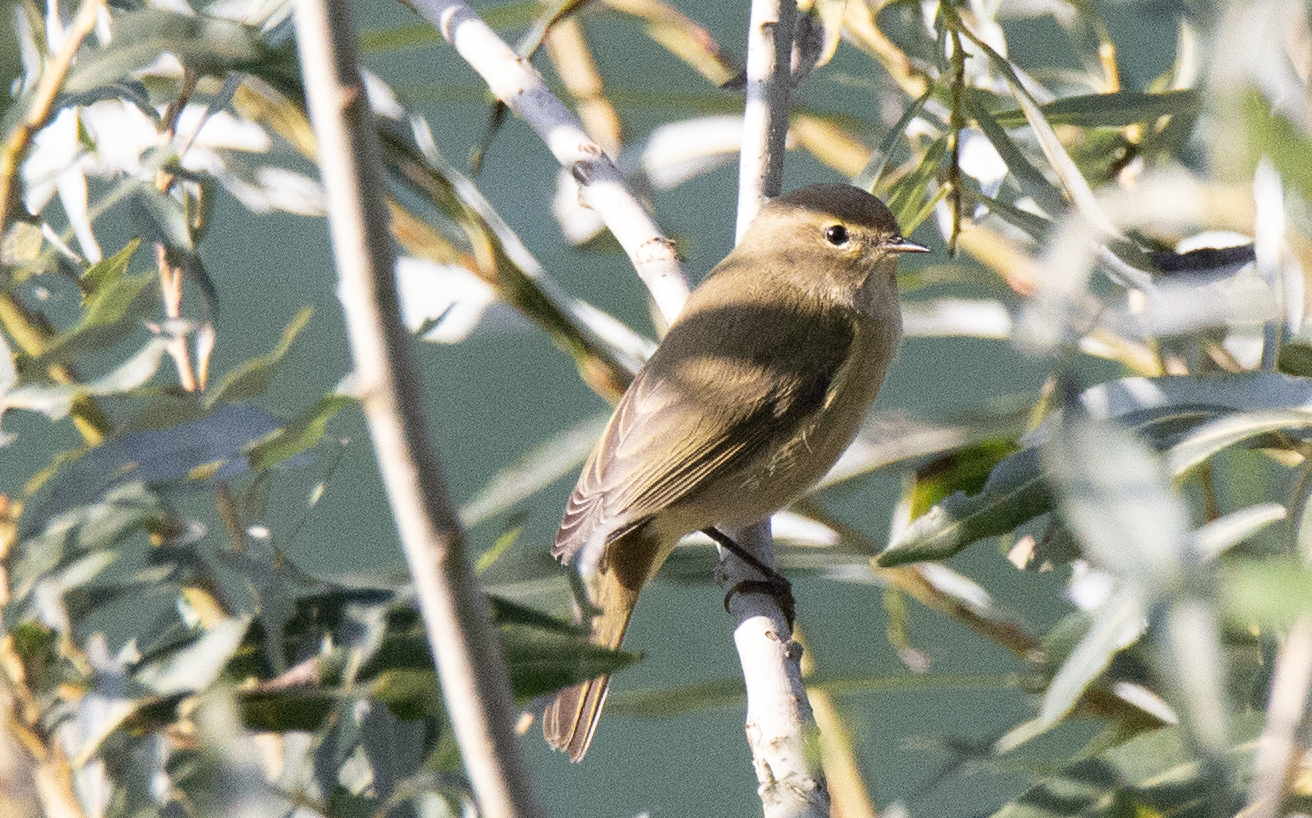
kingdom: Animalia
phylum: Chordata
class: Aves
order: Passeriformes
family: Phylloscopidae
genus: Phylloscopus
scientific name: Phylloscopus collybita
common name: Common chiffchaff
